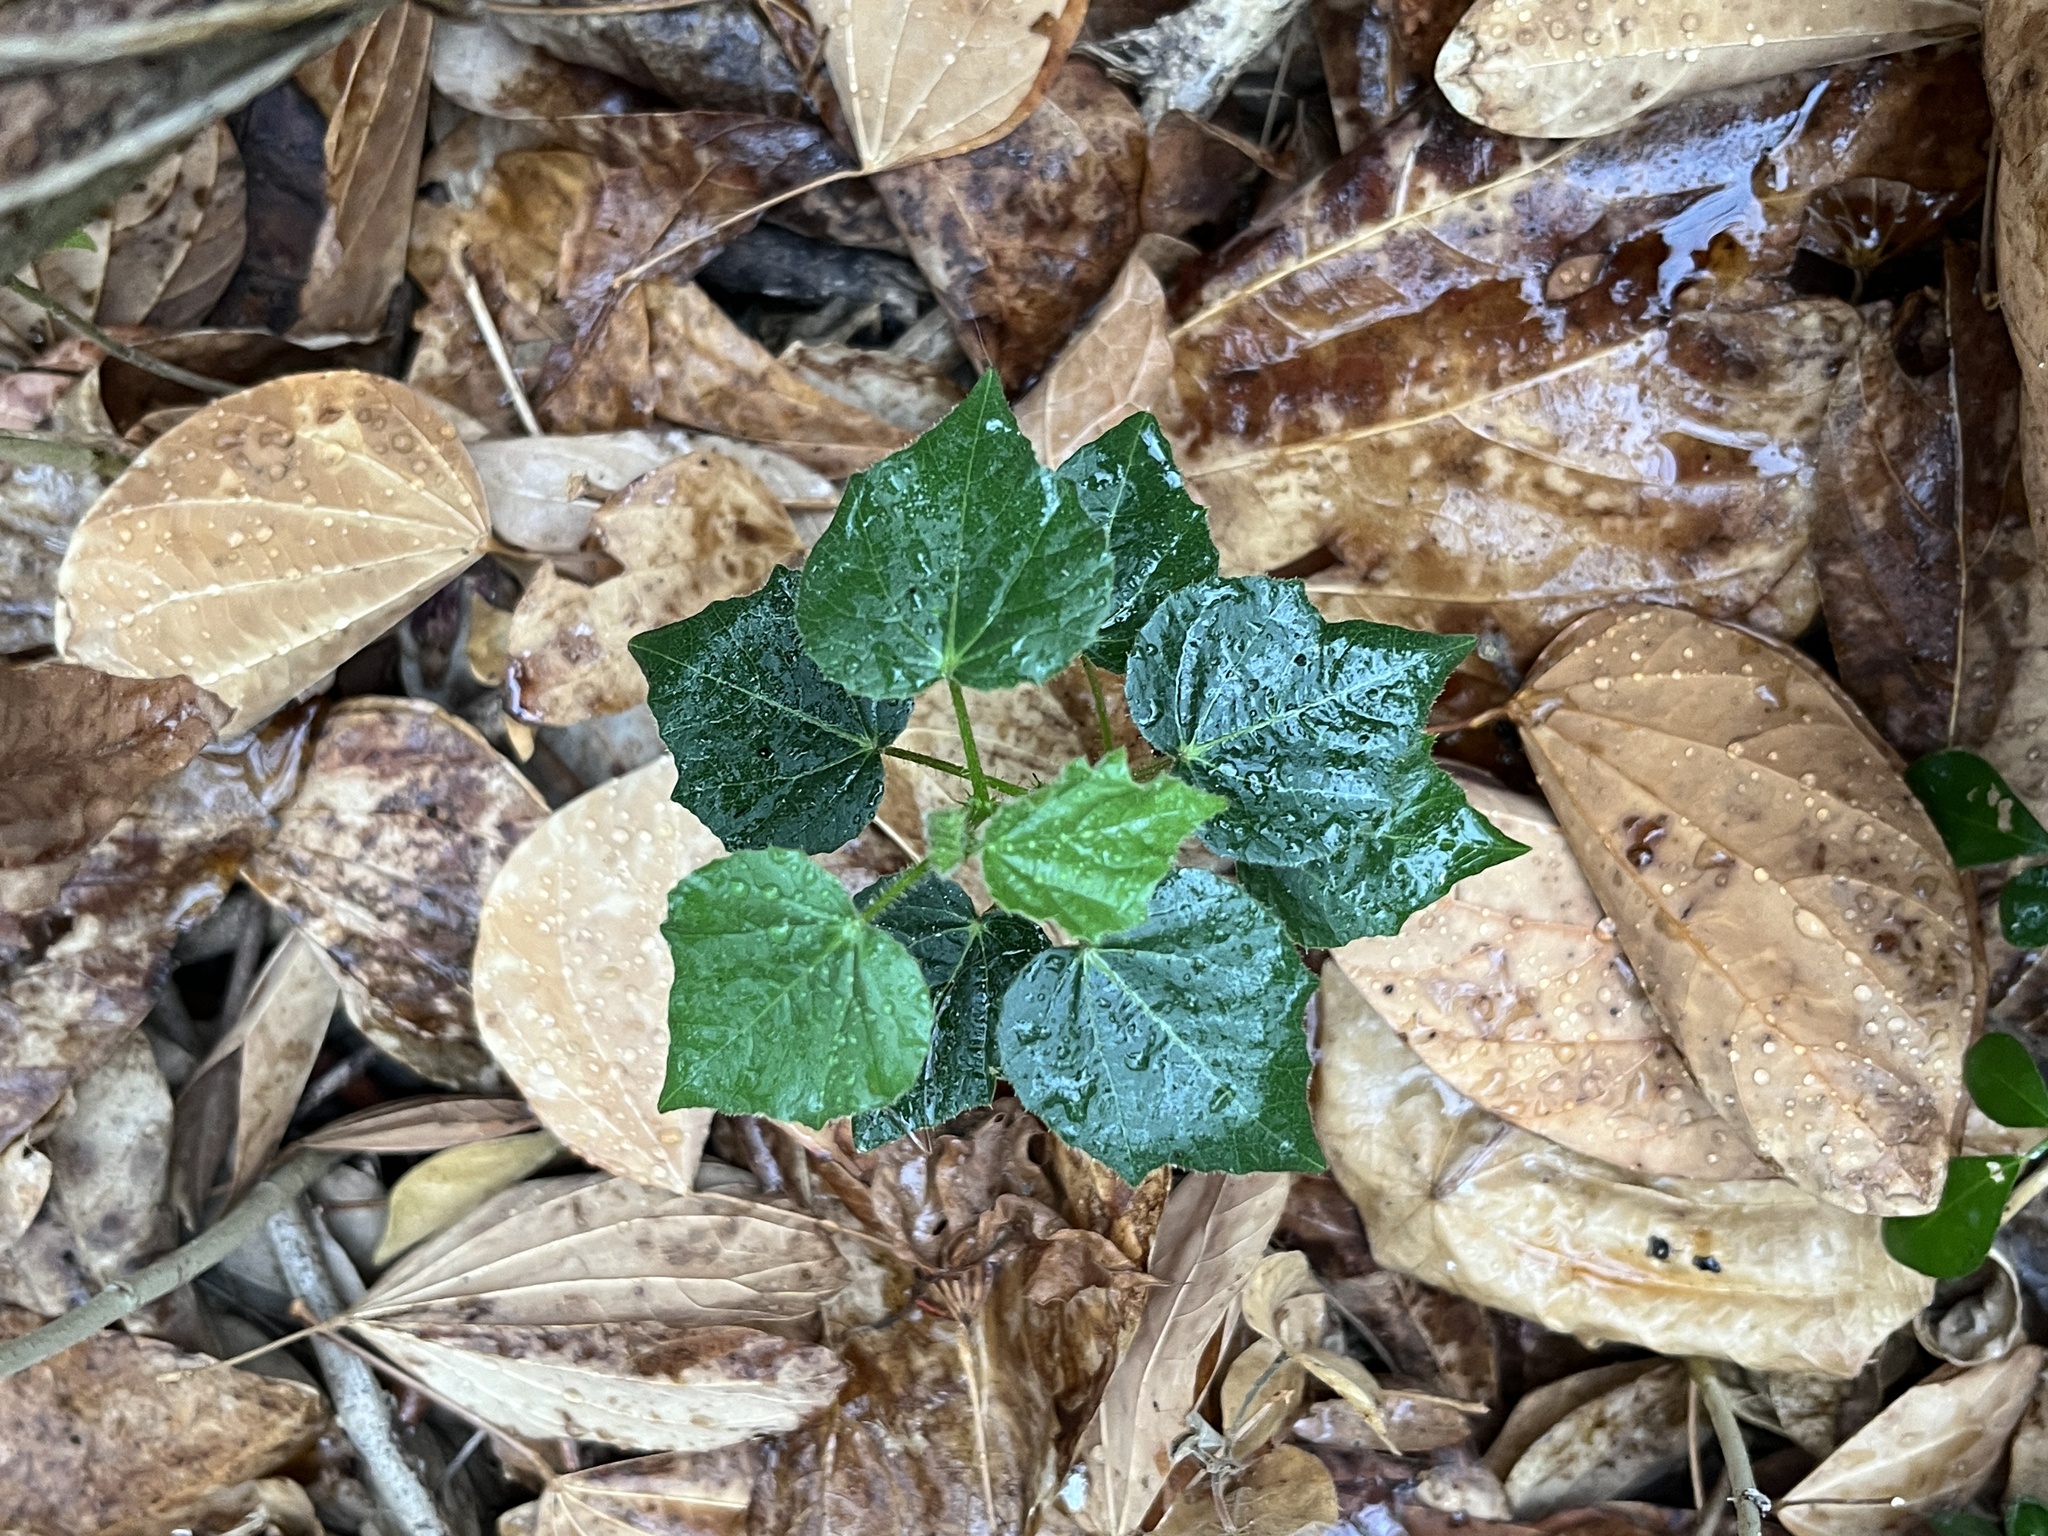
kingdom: Plantae
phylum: Tracheophyta
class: Magnoliopsida
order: Malvales
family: Malvaceae
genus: Urena
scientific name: Urena lobata
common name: Caesarweed
